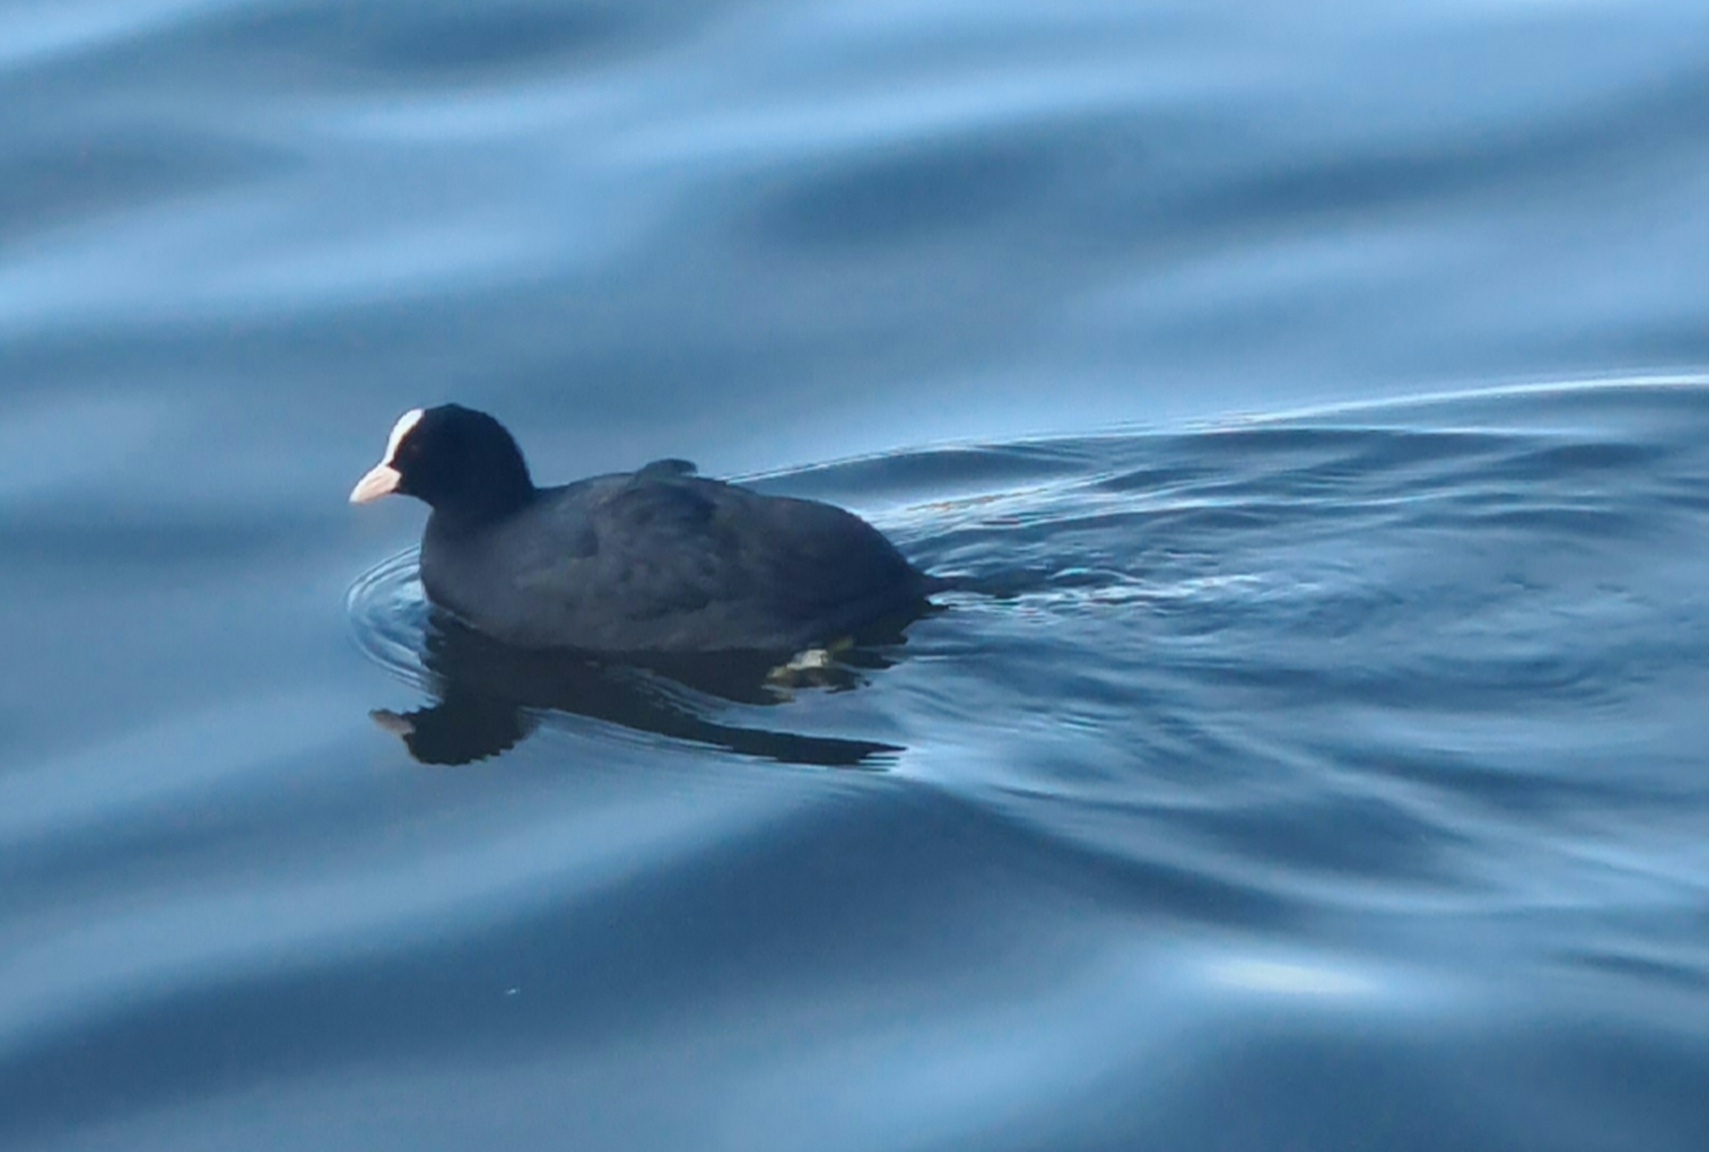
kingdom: Animalia
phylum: Chordata
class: Aves
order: Gruiformes
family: Rallidae
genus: Fulica
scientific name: Fulica atra
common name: Eurasian coot
